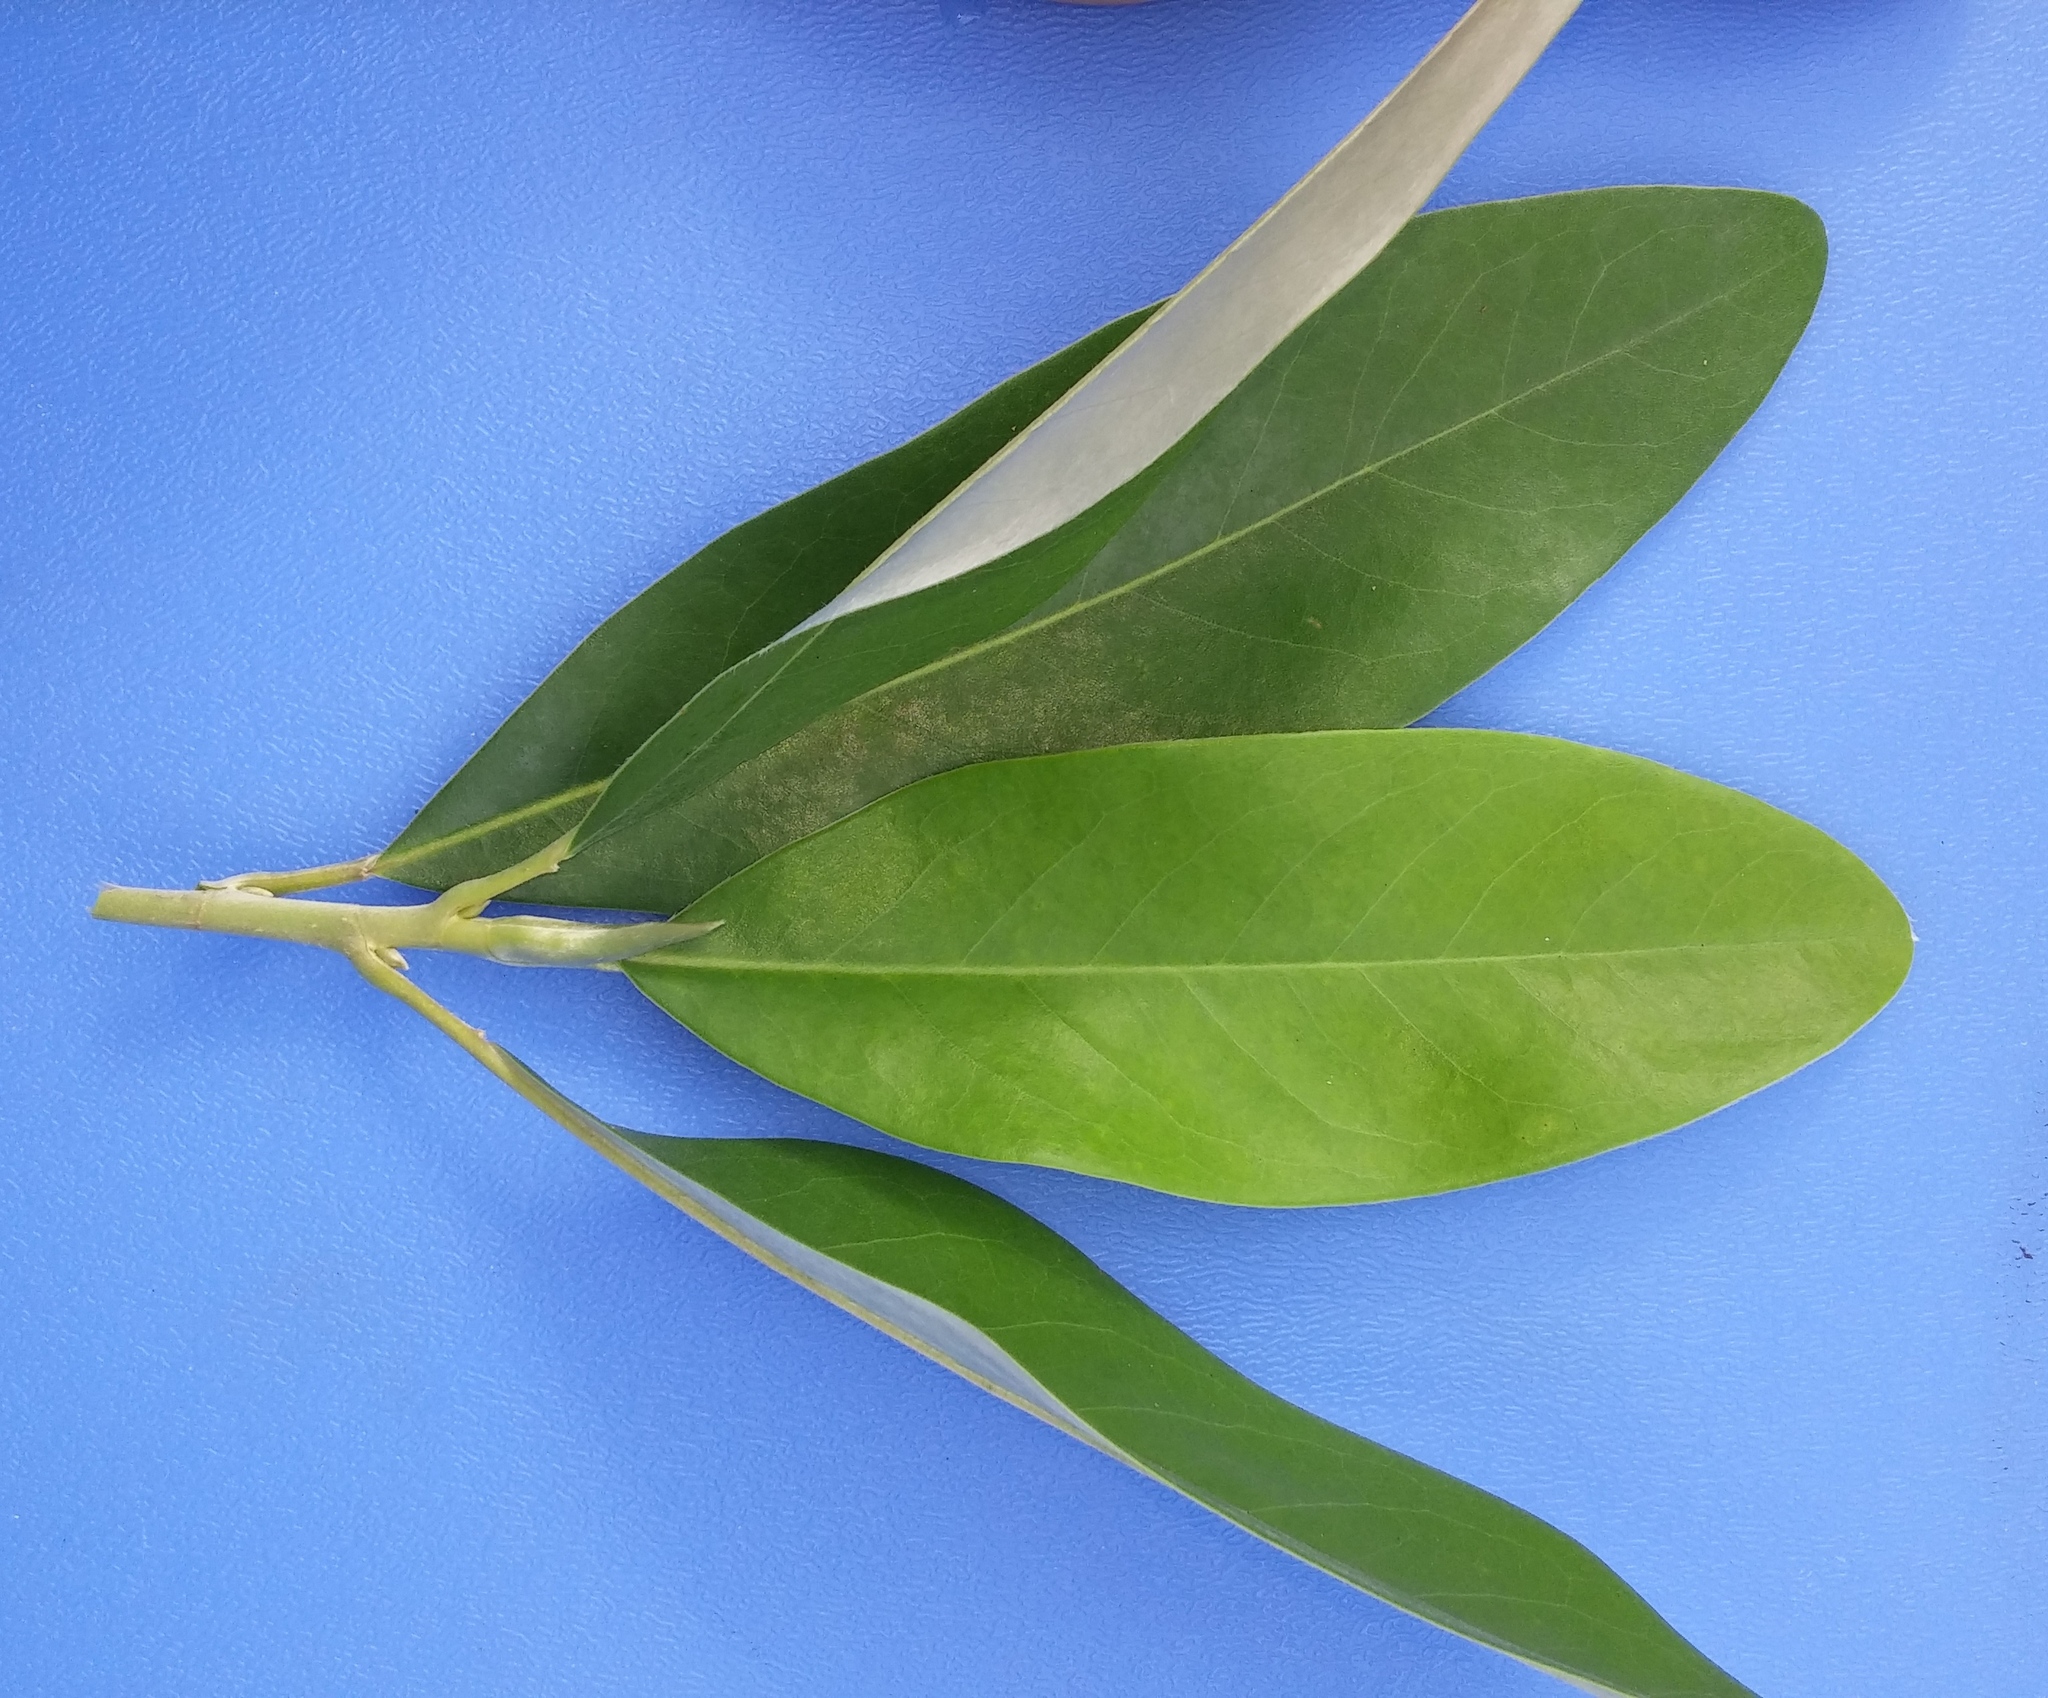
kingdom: Plantae
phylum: Tracheophyta
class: Magnoliopsida
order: Magnoliales
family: Magnoliaceae
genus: Magnolia
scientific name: Magnolia virginiana
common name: Swamp bay
